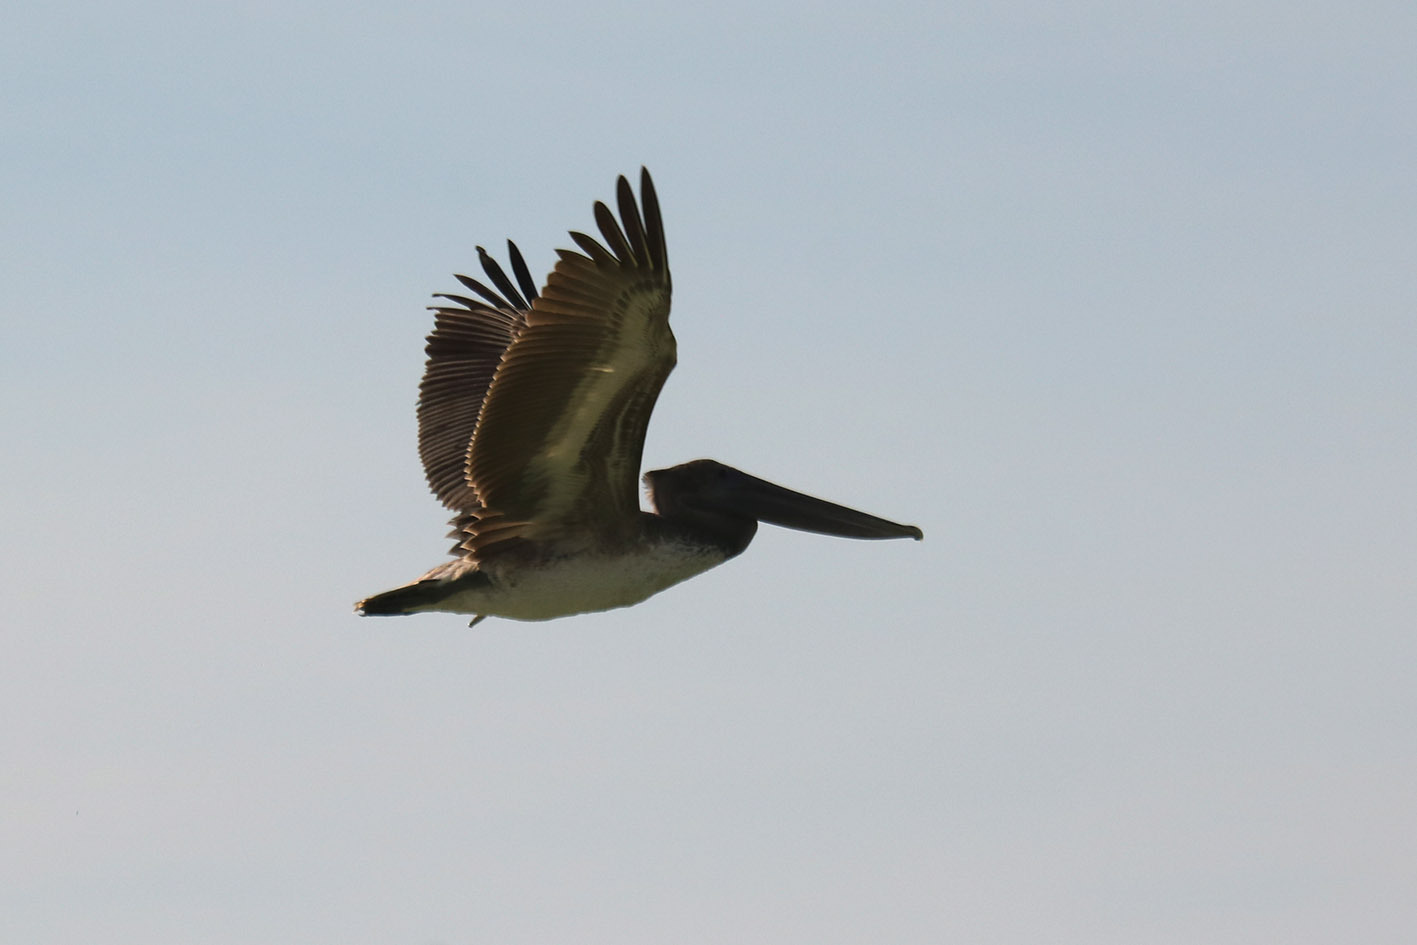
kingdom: Animalia
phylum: Chordata
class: Aves
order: Pelecaniformes
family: Pelecanidae
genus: Pelecanus
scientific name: Pelecanus occidentalis
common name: Brown pelican
